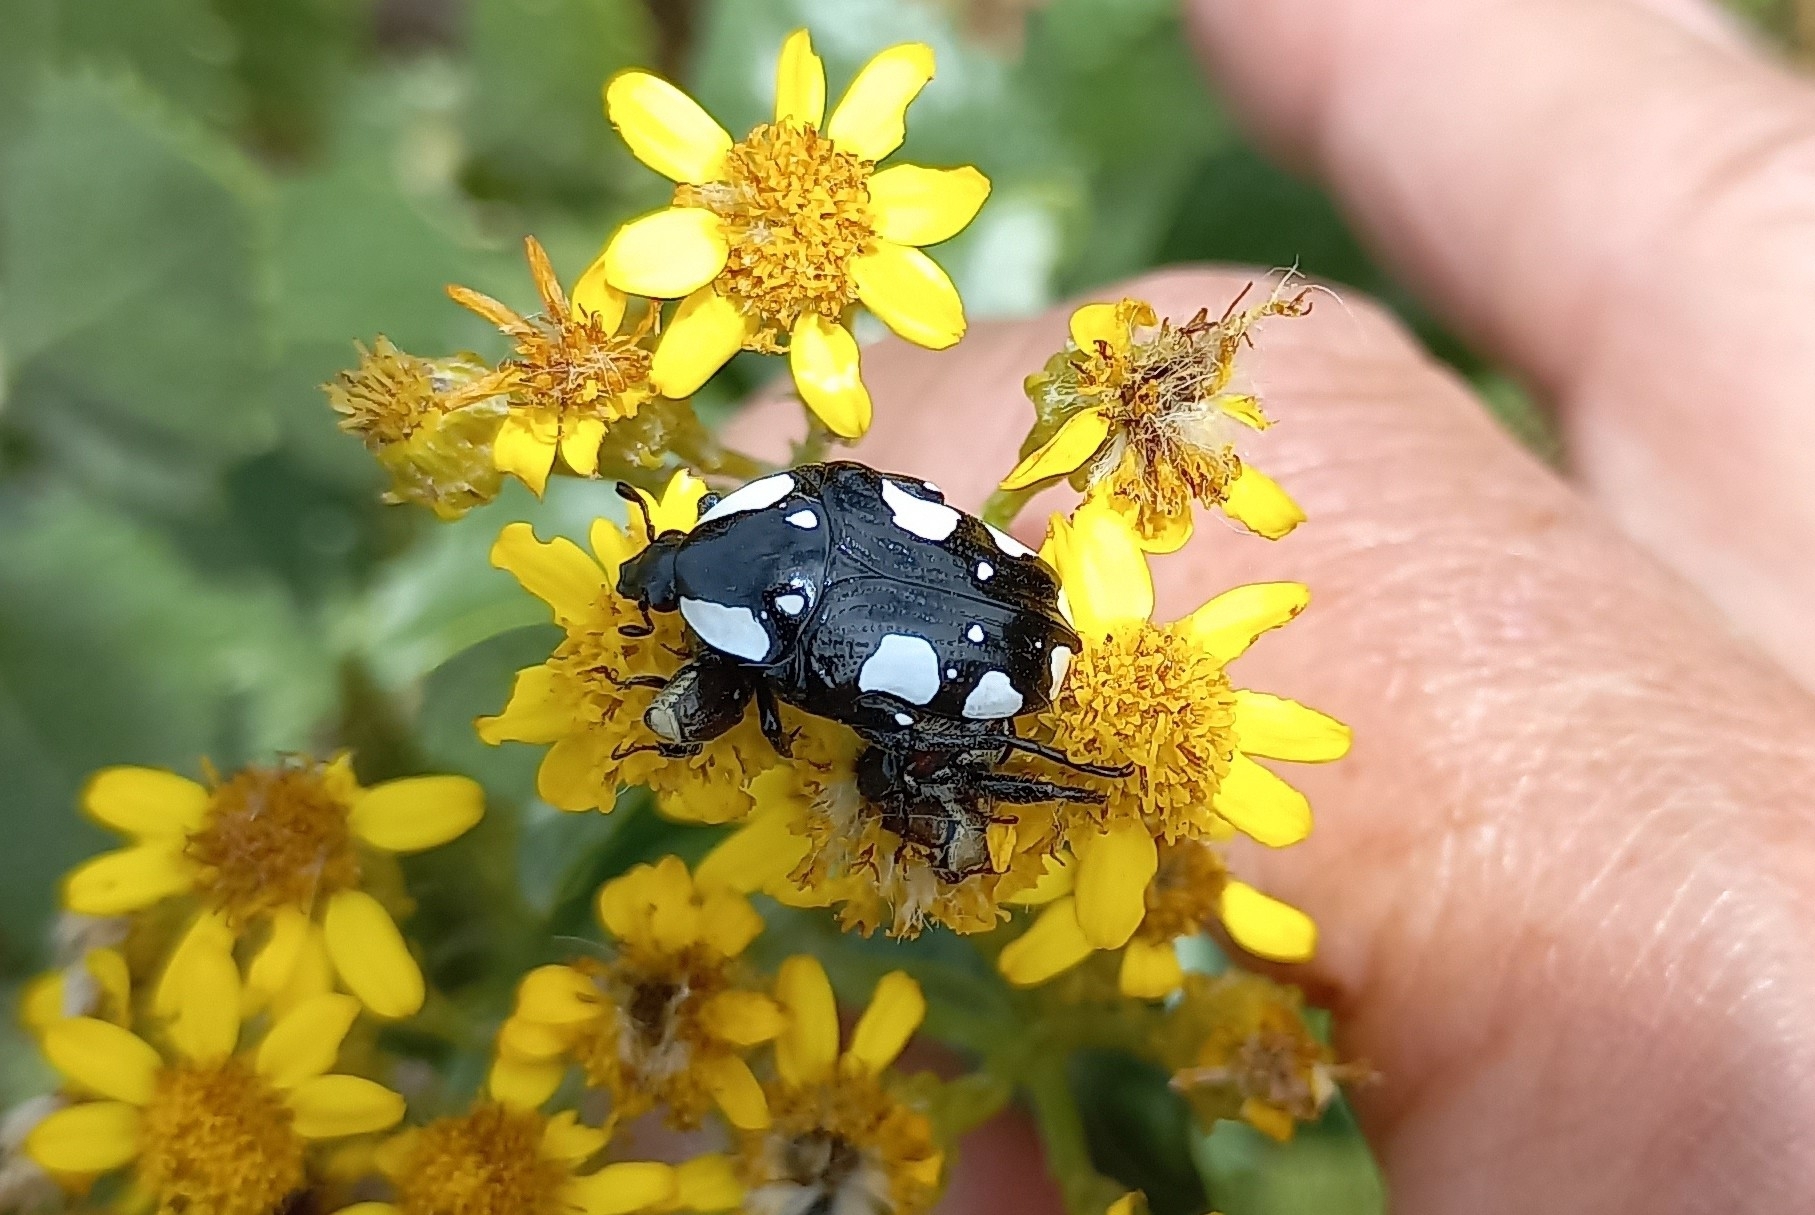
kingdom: Animalia
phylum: Arthropoda
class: Insecta
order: Coleoptera
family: Scarabaeidae
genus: Mausoleopsis
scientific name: Mausoleopsis amabilis
